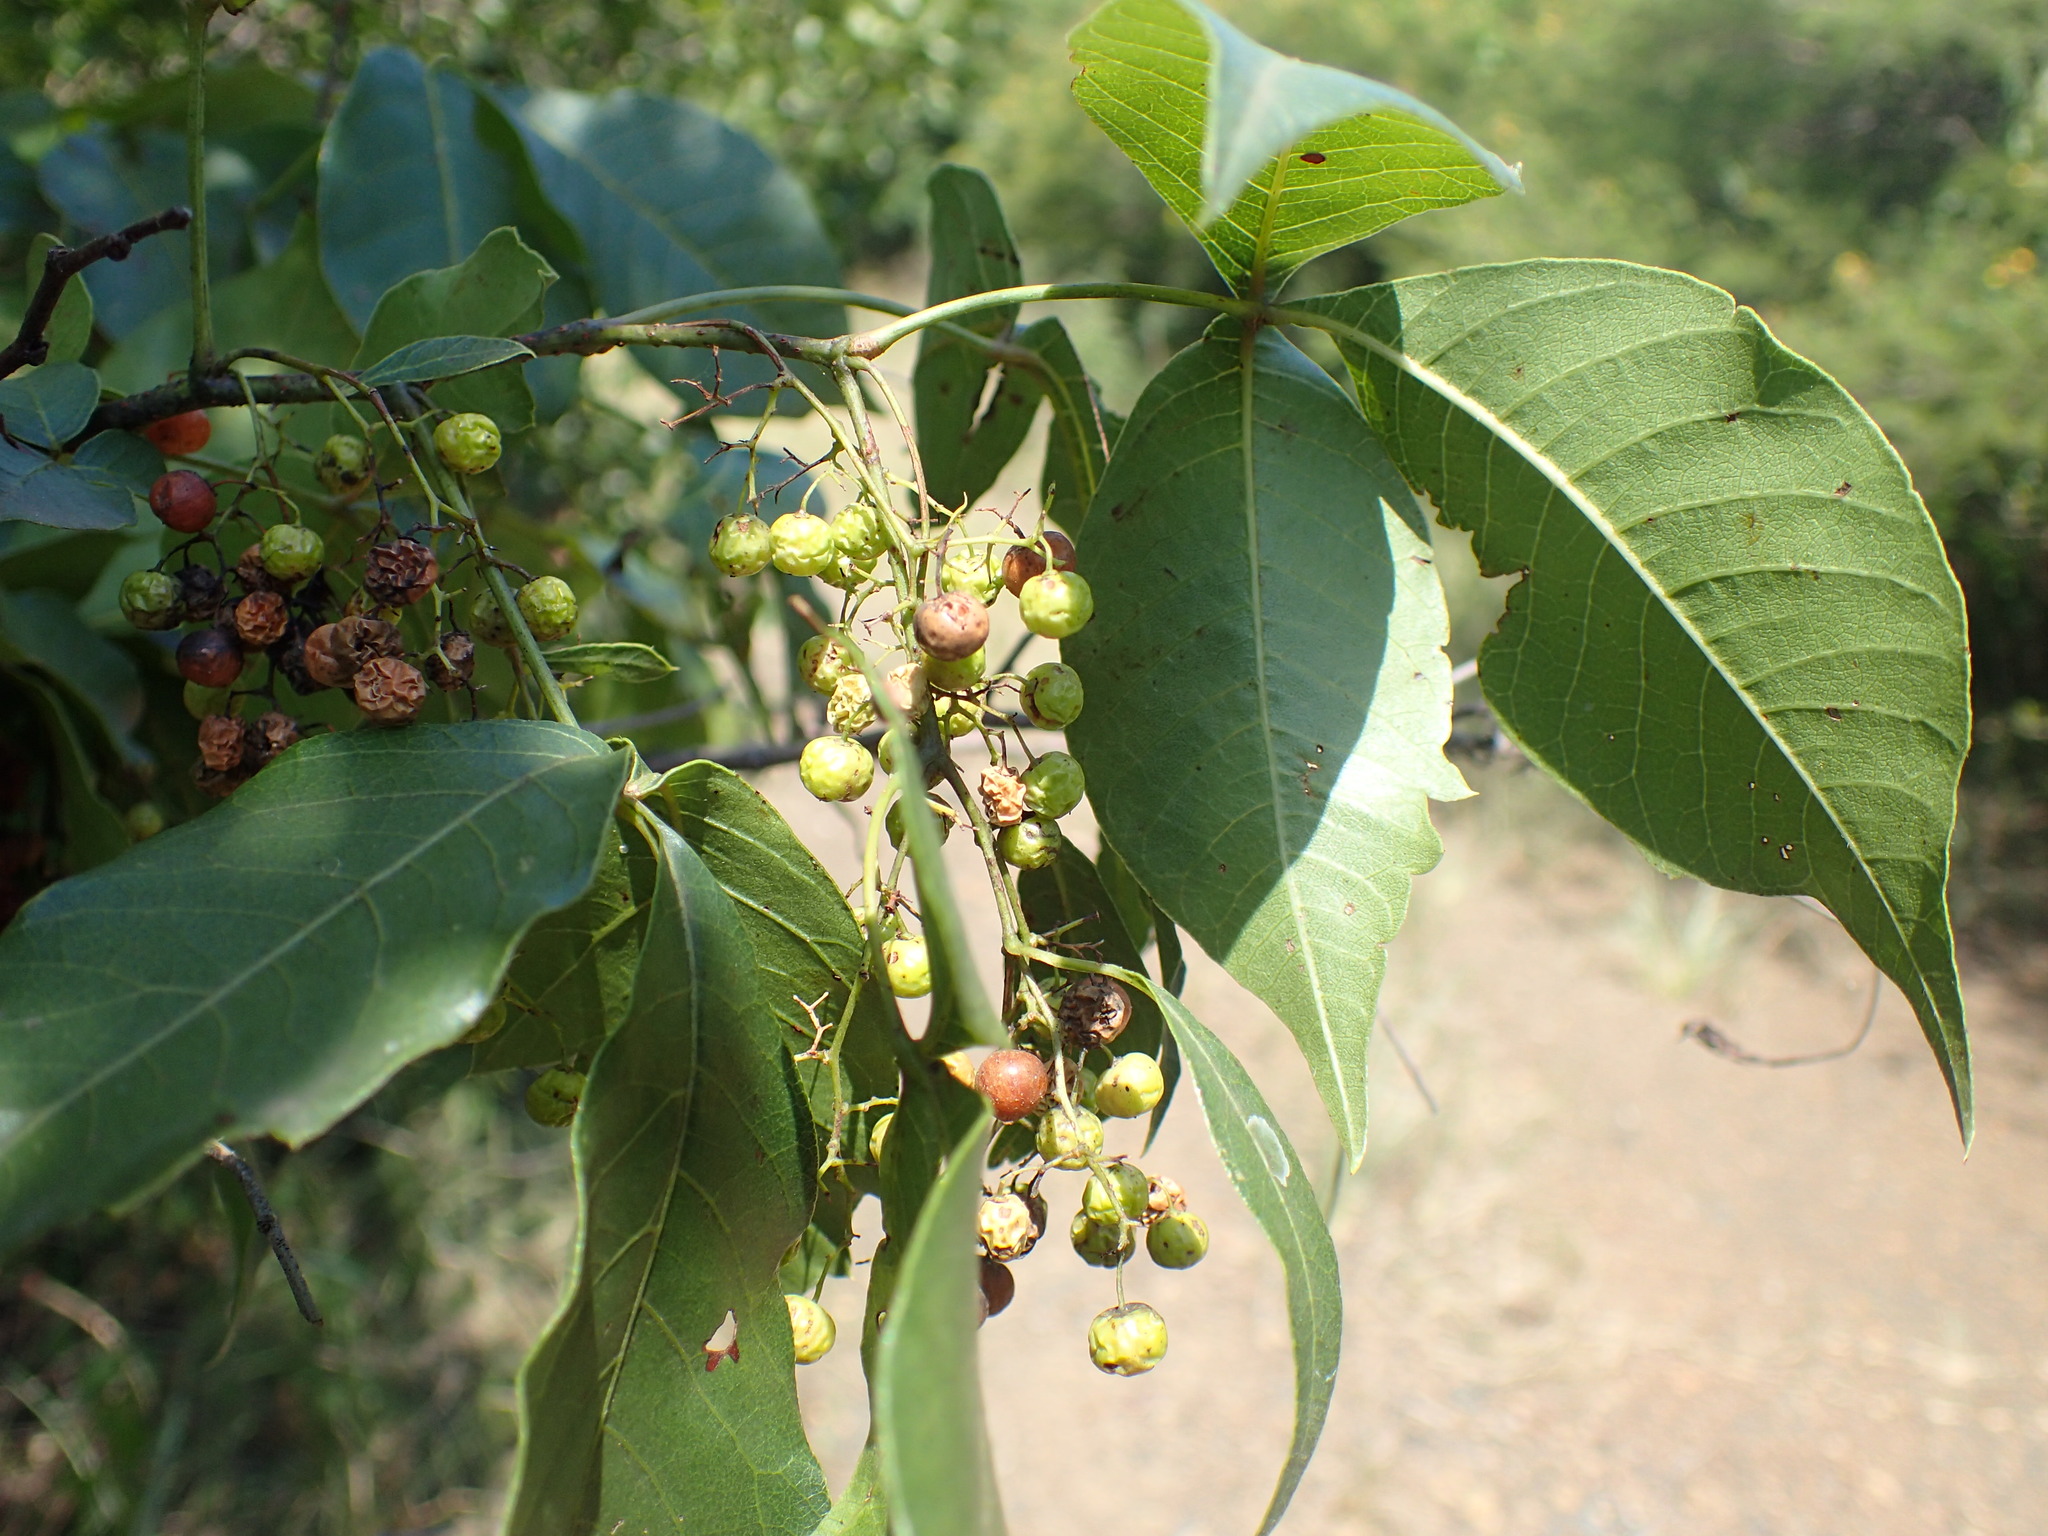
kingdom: Plantae
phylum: Tracheophyta
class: Magnoliopsida
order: Sapindales
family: Anacardiaceae
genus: Searsia
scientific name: Searsia chirindensis
